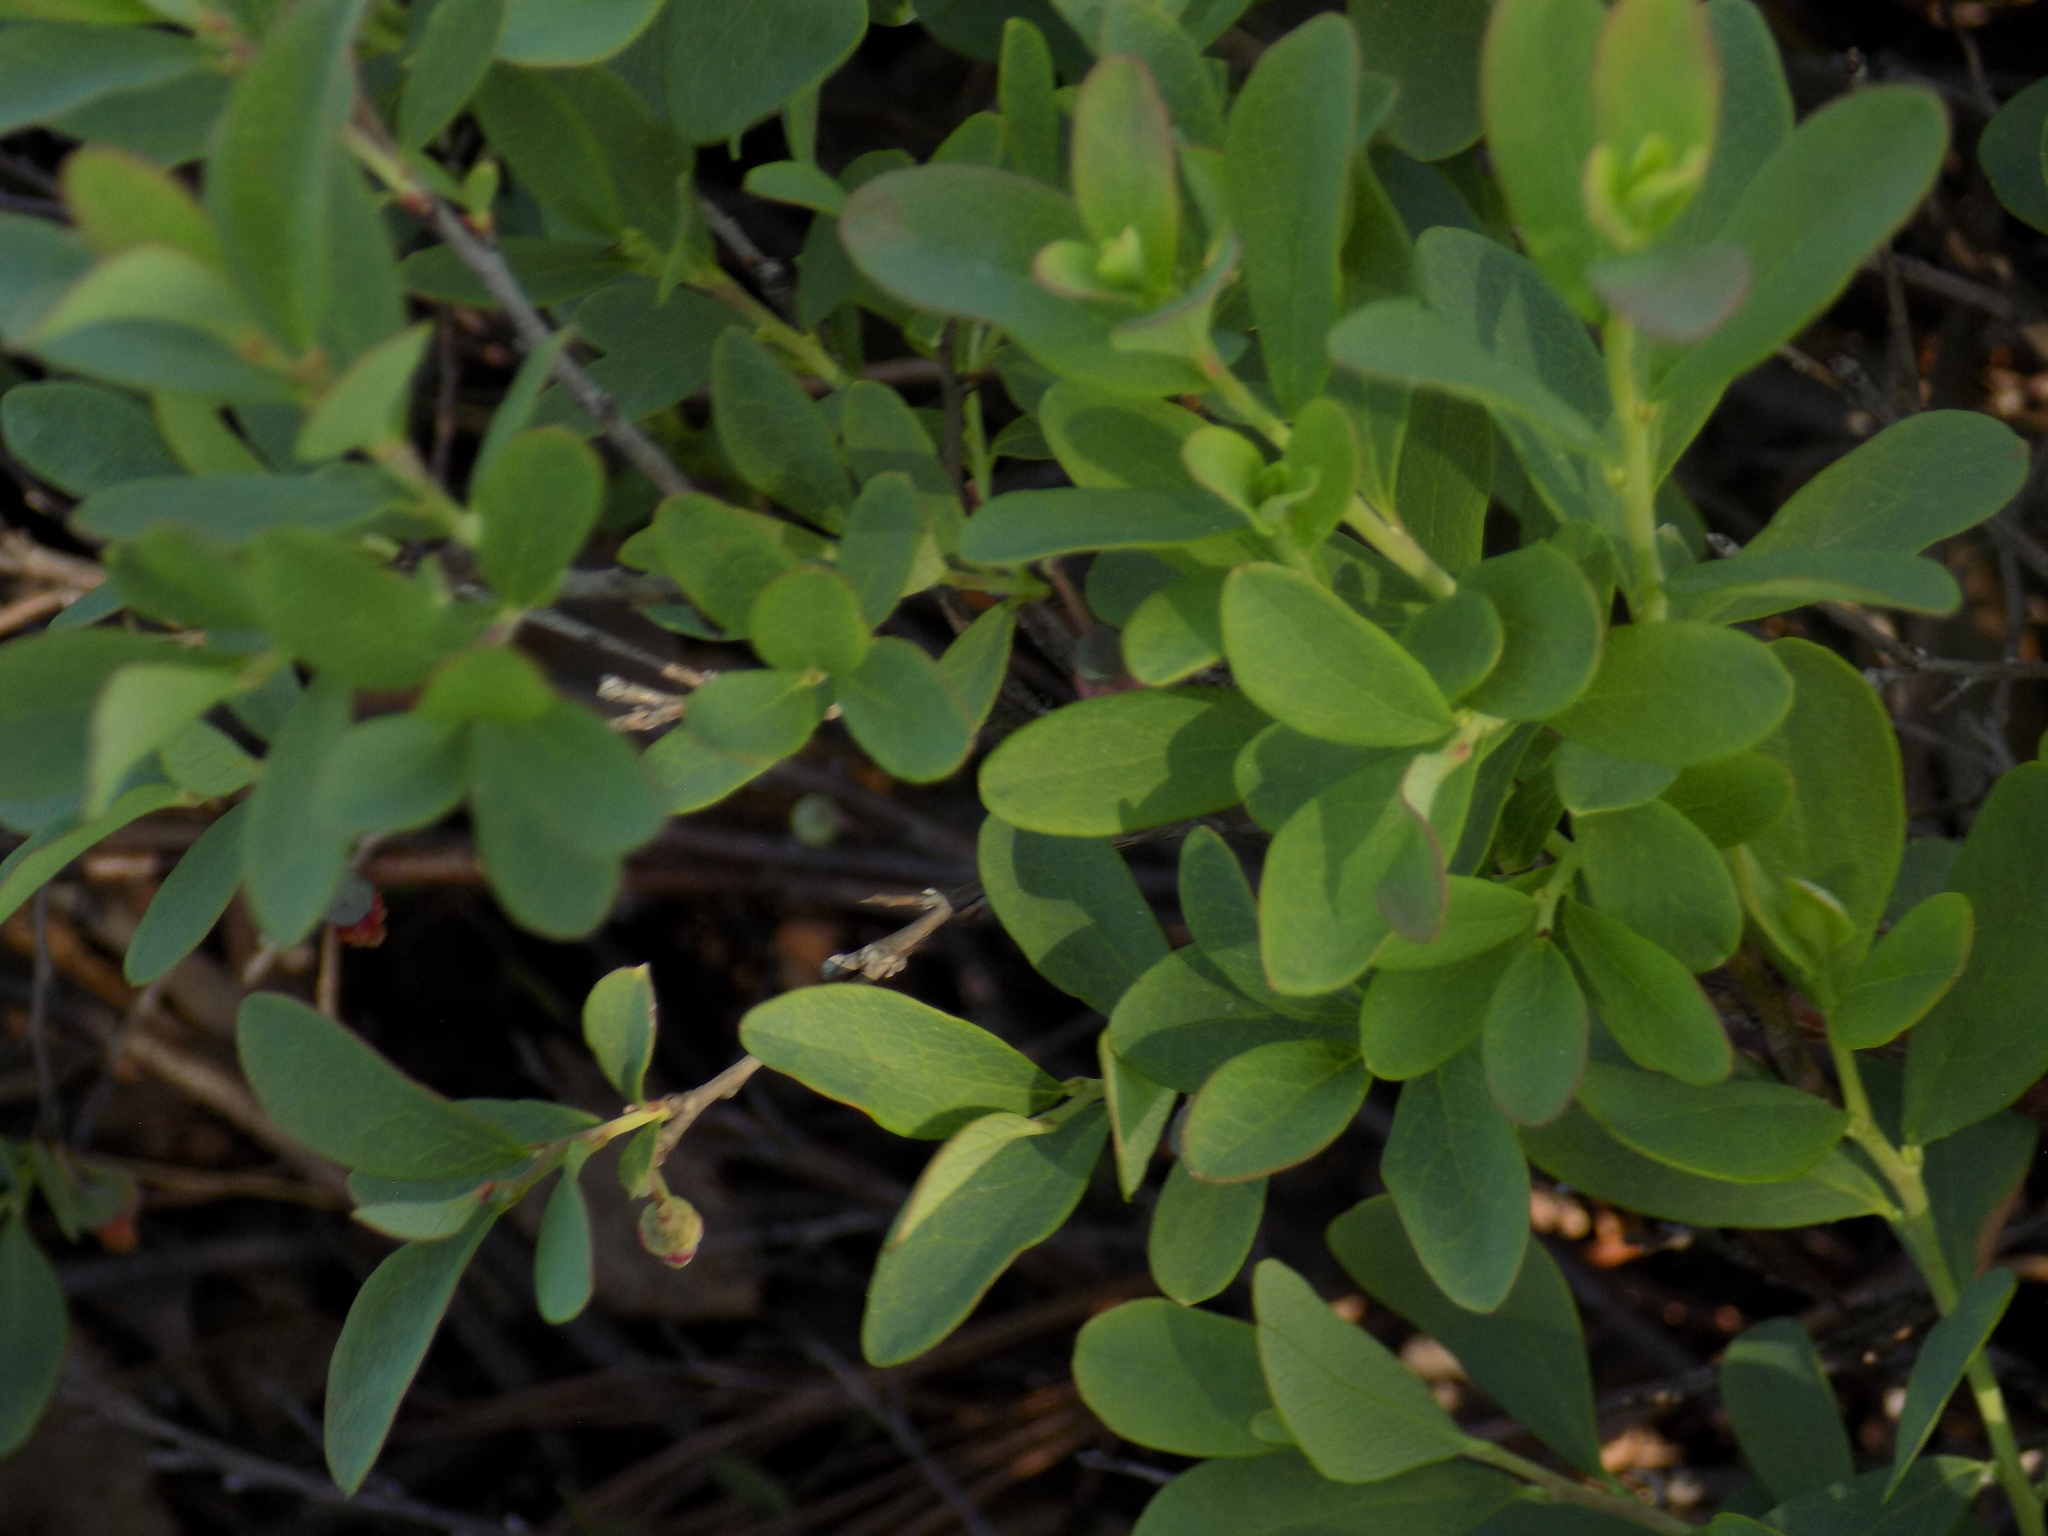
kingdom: Plantae
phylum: Tracheophyta
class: Magnoliopsida
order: Ericales
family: Ericaceae
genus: Vaccinium
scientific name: Vaccinium uliginosum
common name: Bog bilberry
